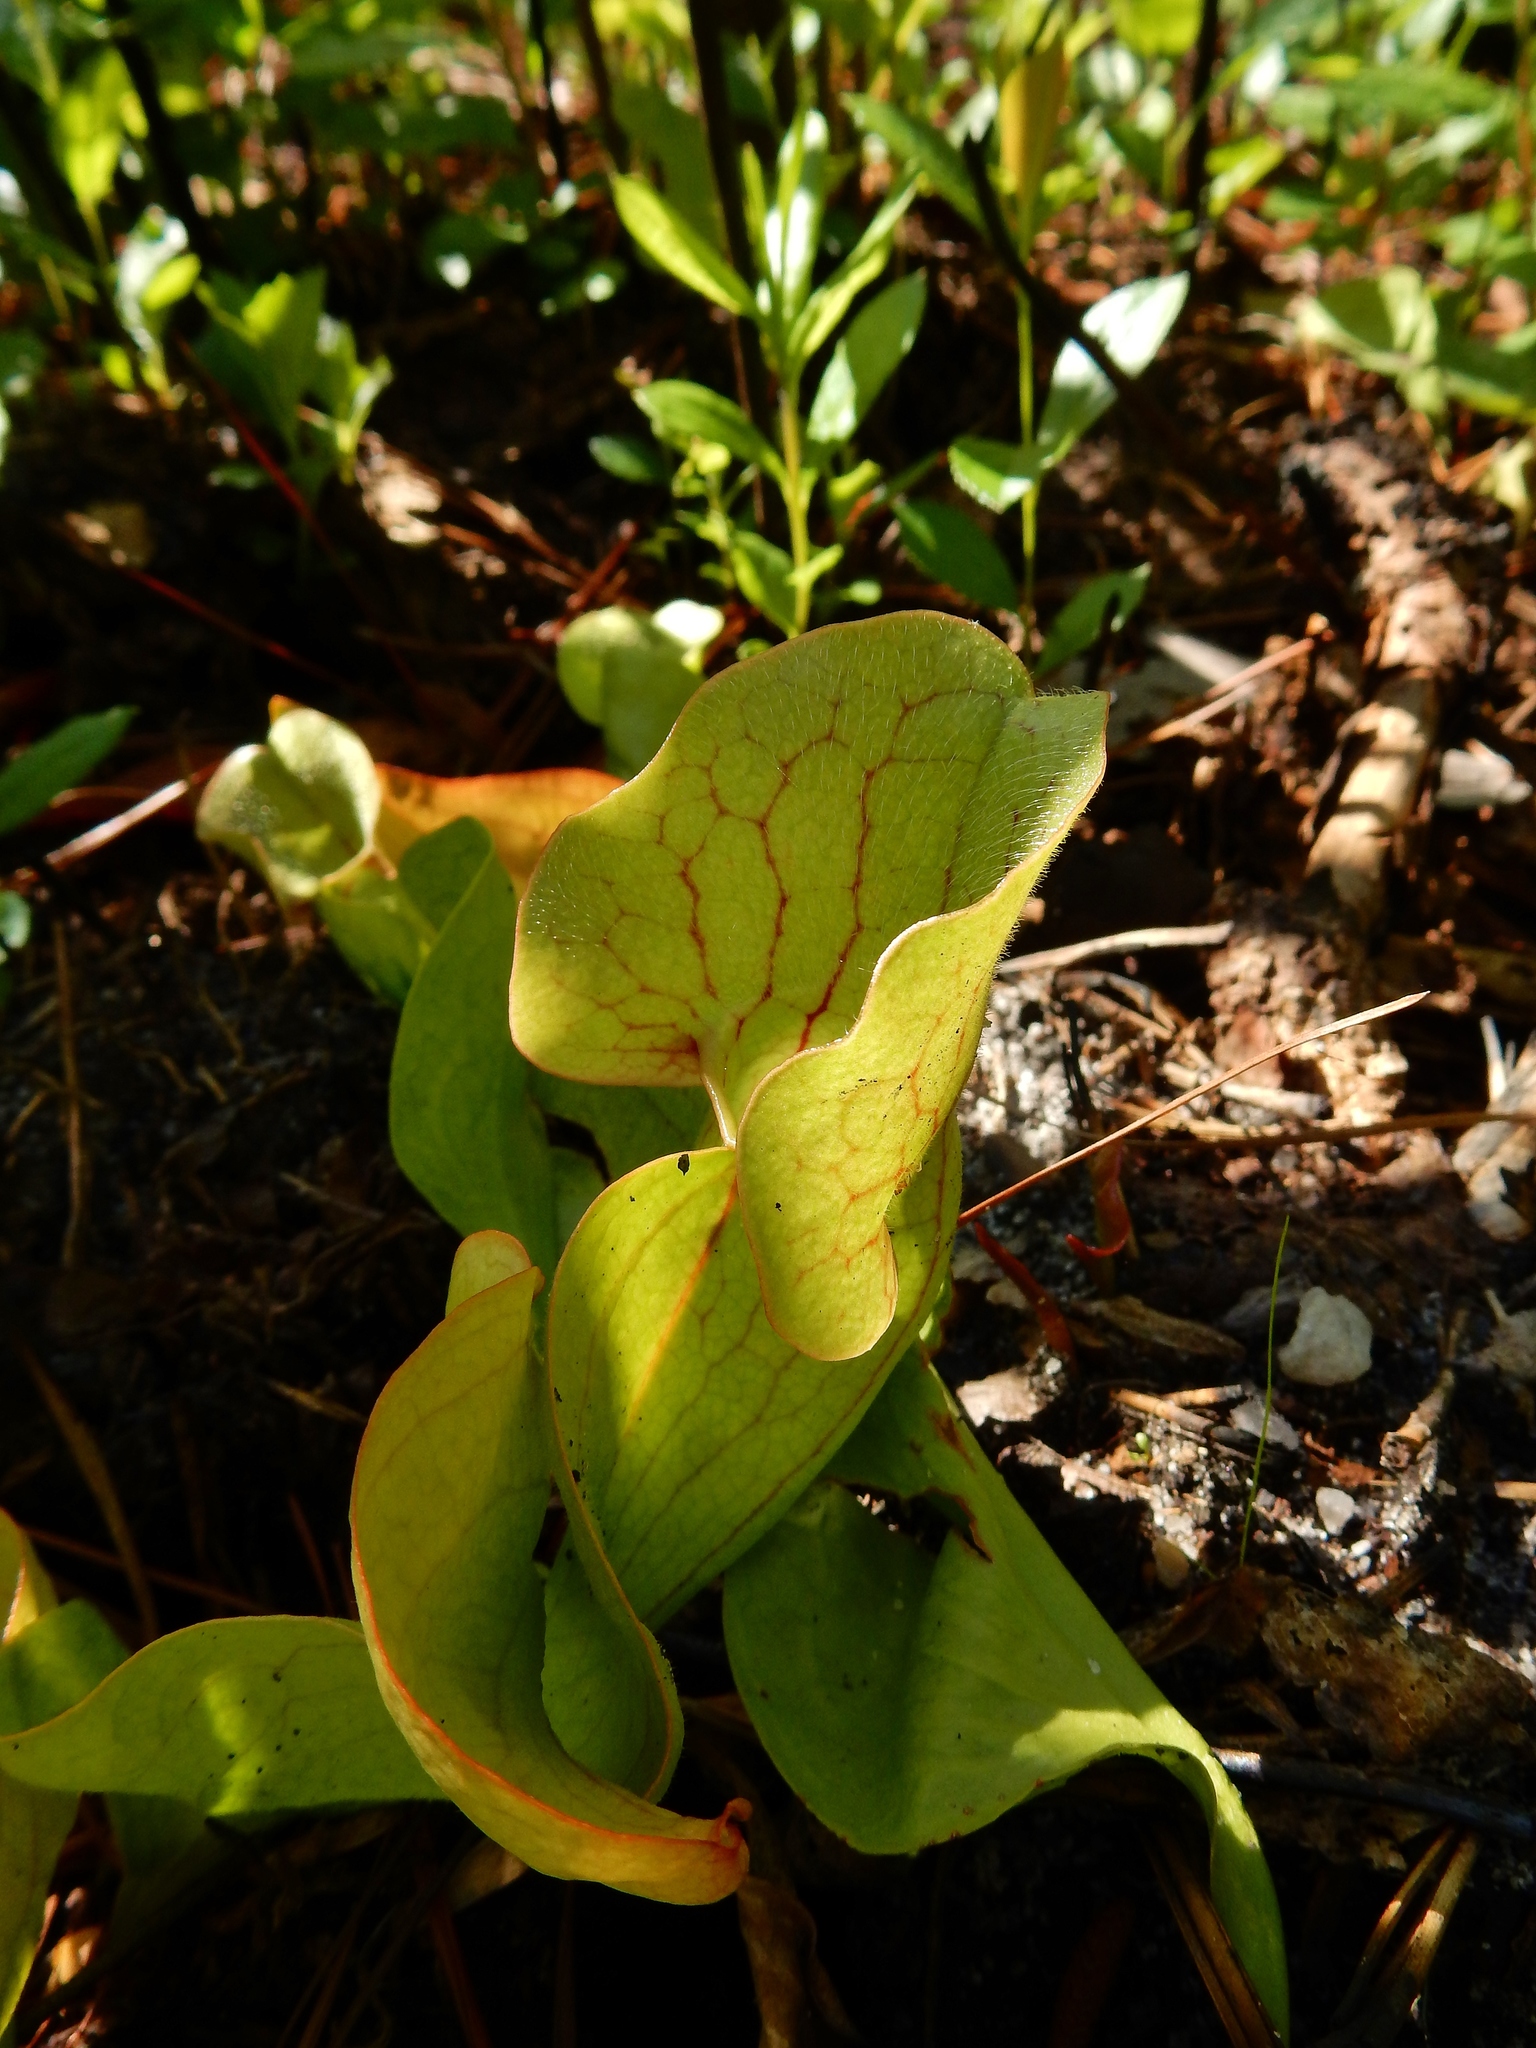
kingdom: Plantae
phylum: Tracheophyta
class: Magnoliopsida
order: Ericales
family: Sarraceniaceae
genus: Sarracenia
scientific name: Sarracenia purpurea
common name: Pitcherplant
